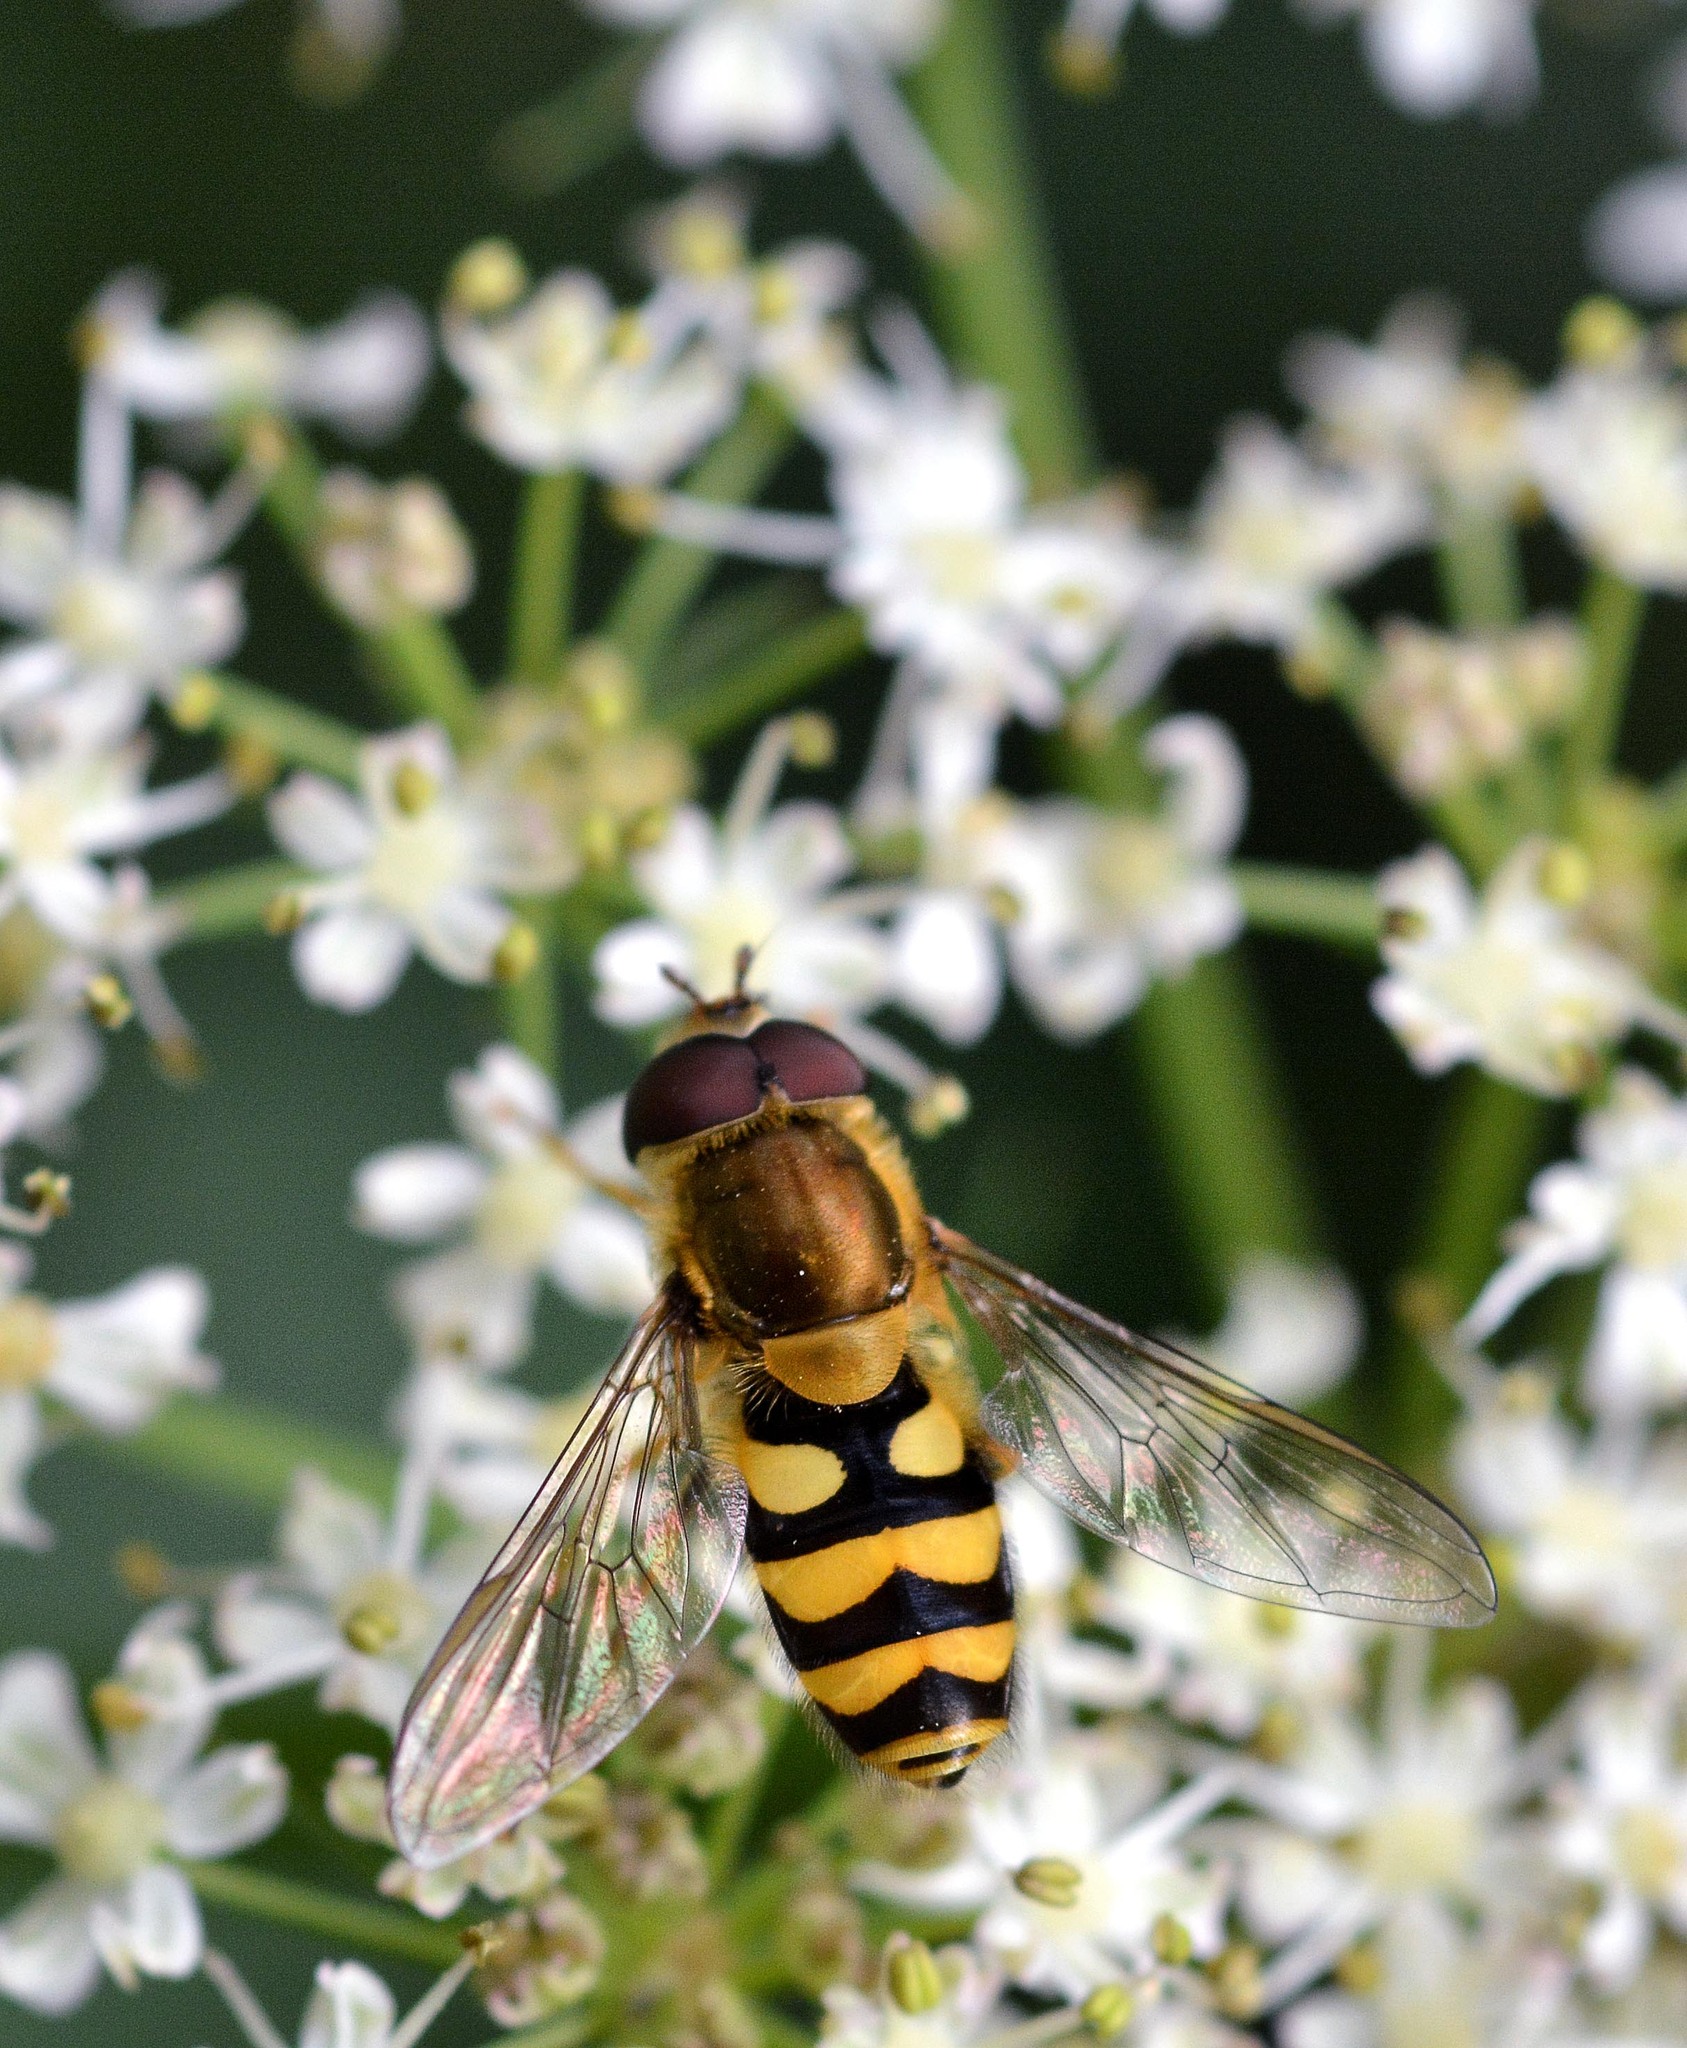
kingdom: Animalia
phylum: Arthropoda
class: Insecta
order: Diptera
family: Syrphidae
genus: Syrphus
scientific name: Syrphus
